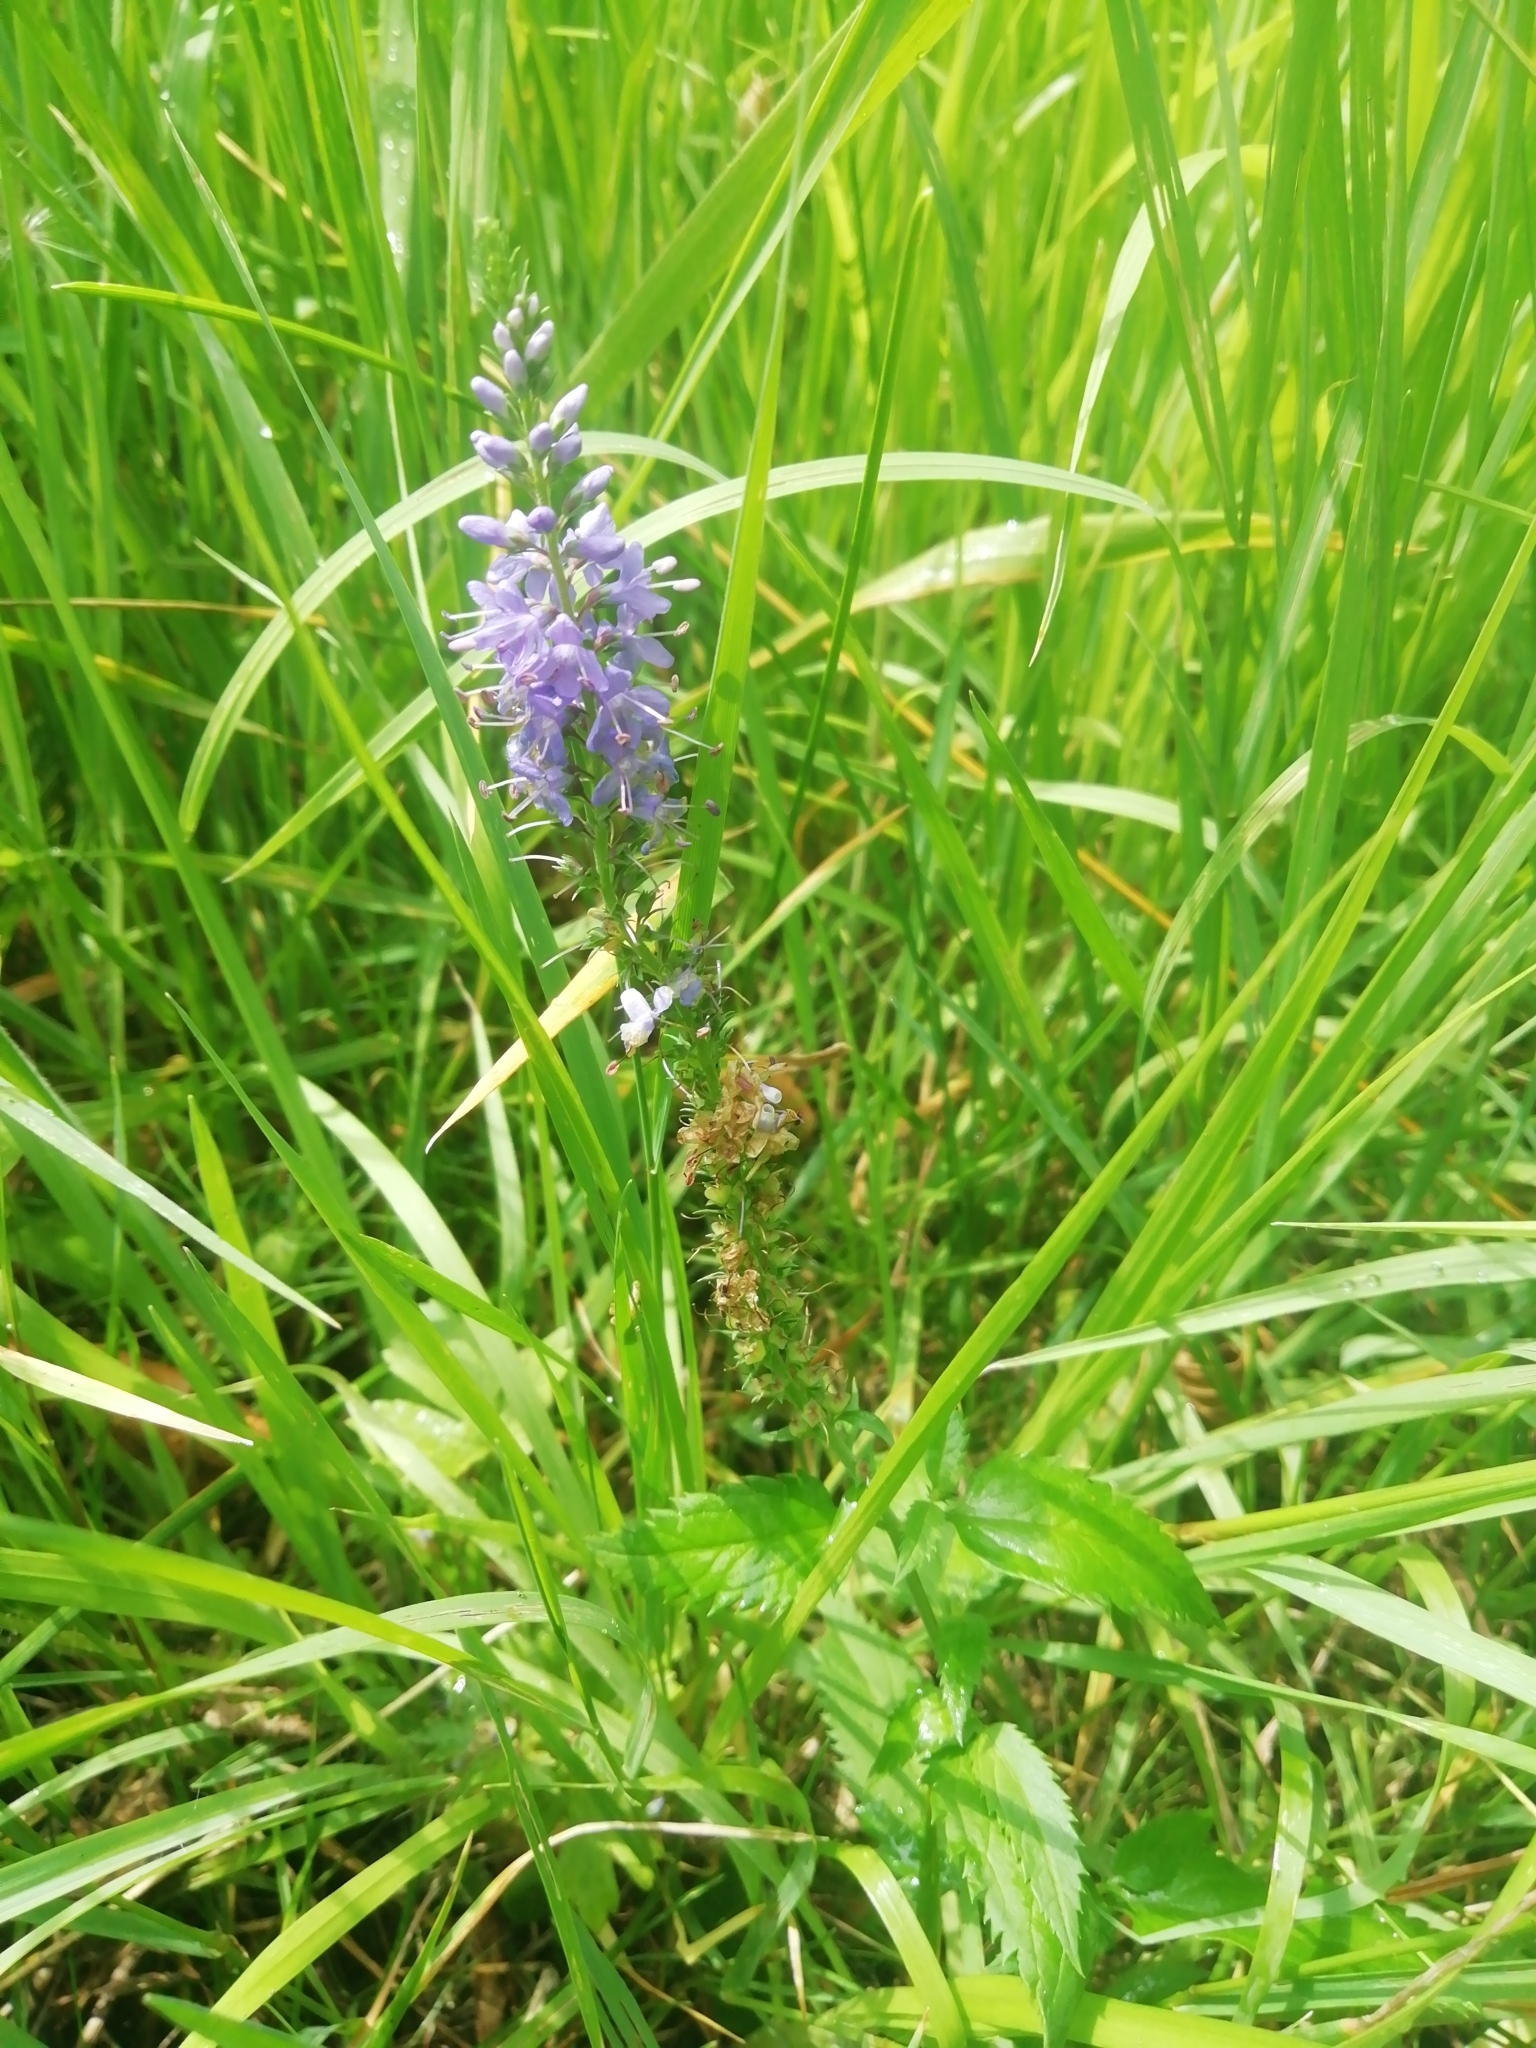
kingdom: Plantae
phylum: Tracheophyta
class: Magnoliopsida
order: Lamiales
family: Plantaginaceae
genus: Veronica
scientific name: Veronica longifolia
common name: Garden speedwell
